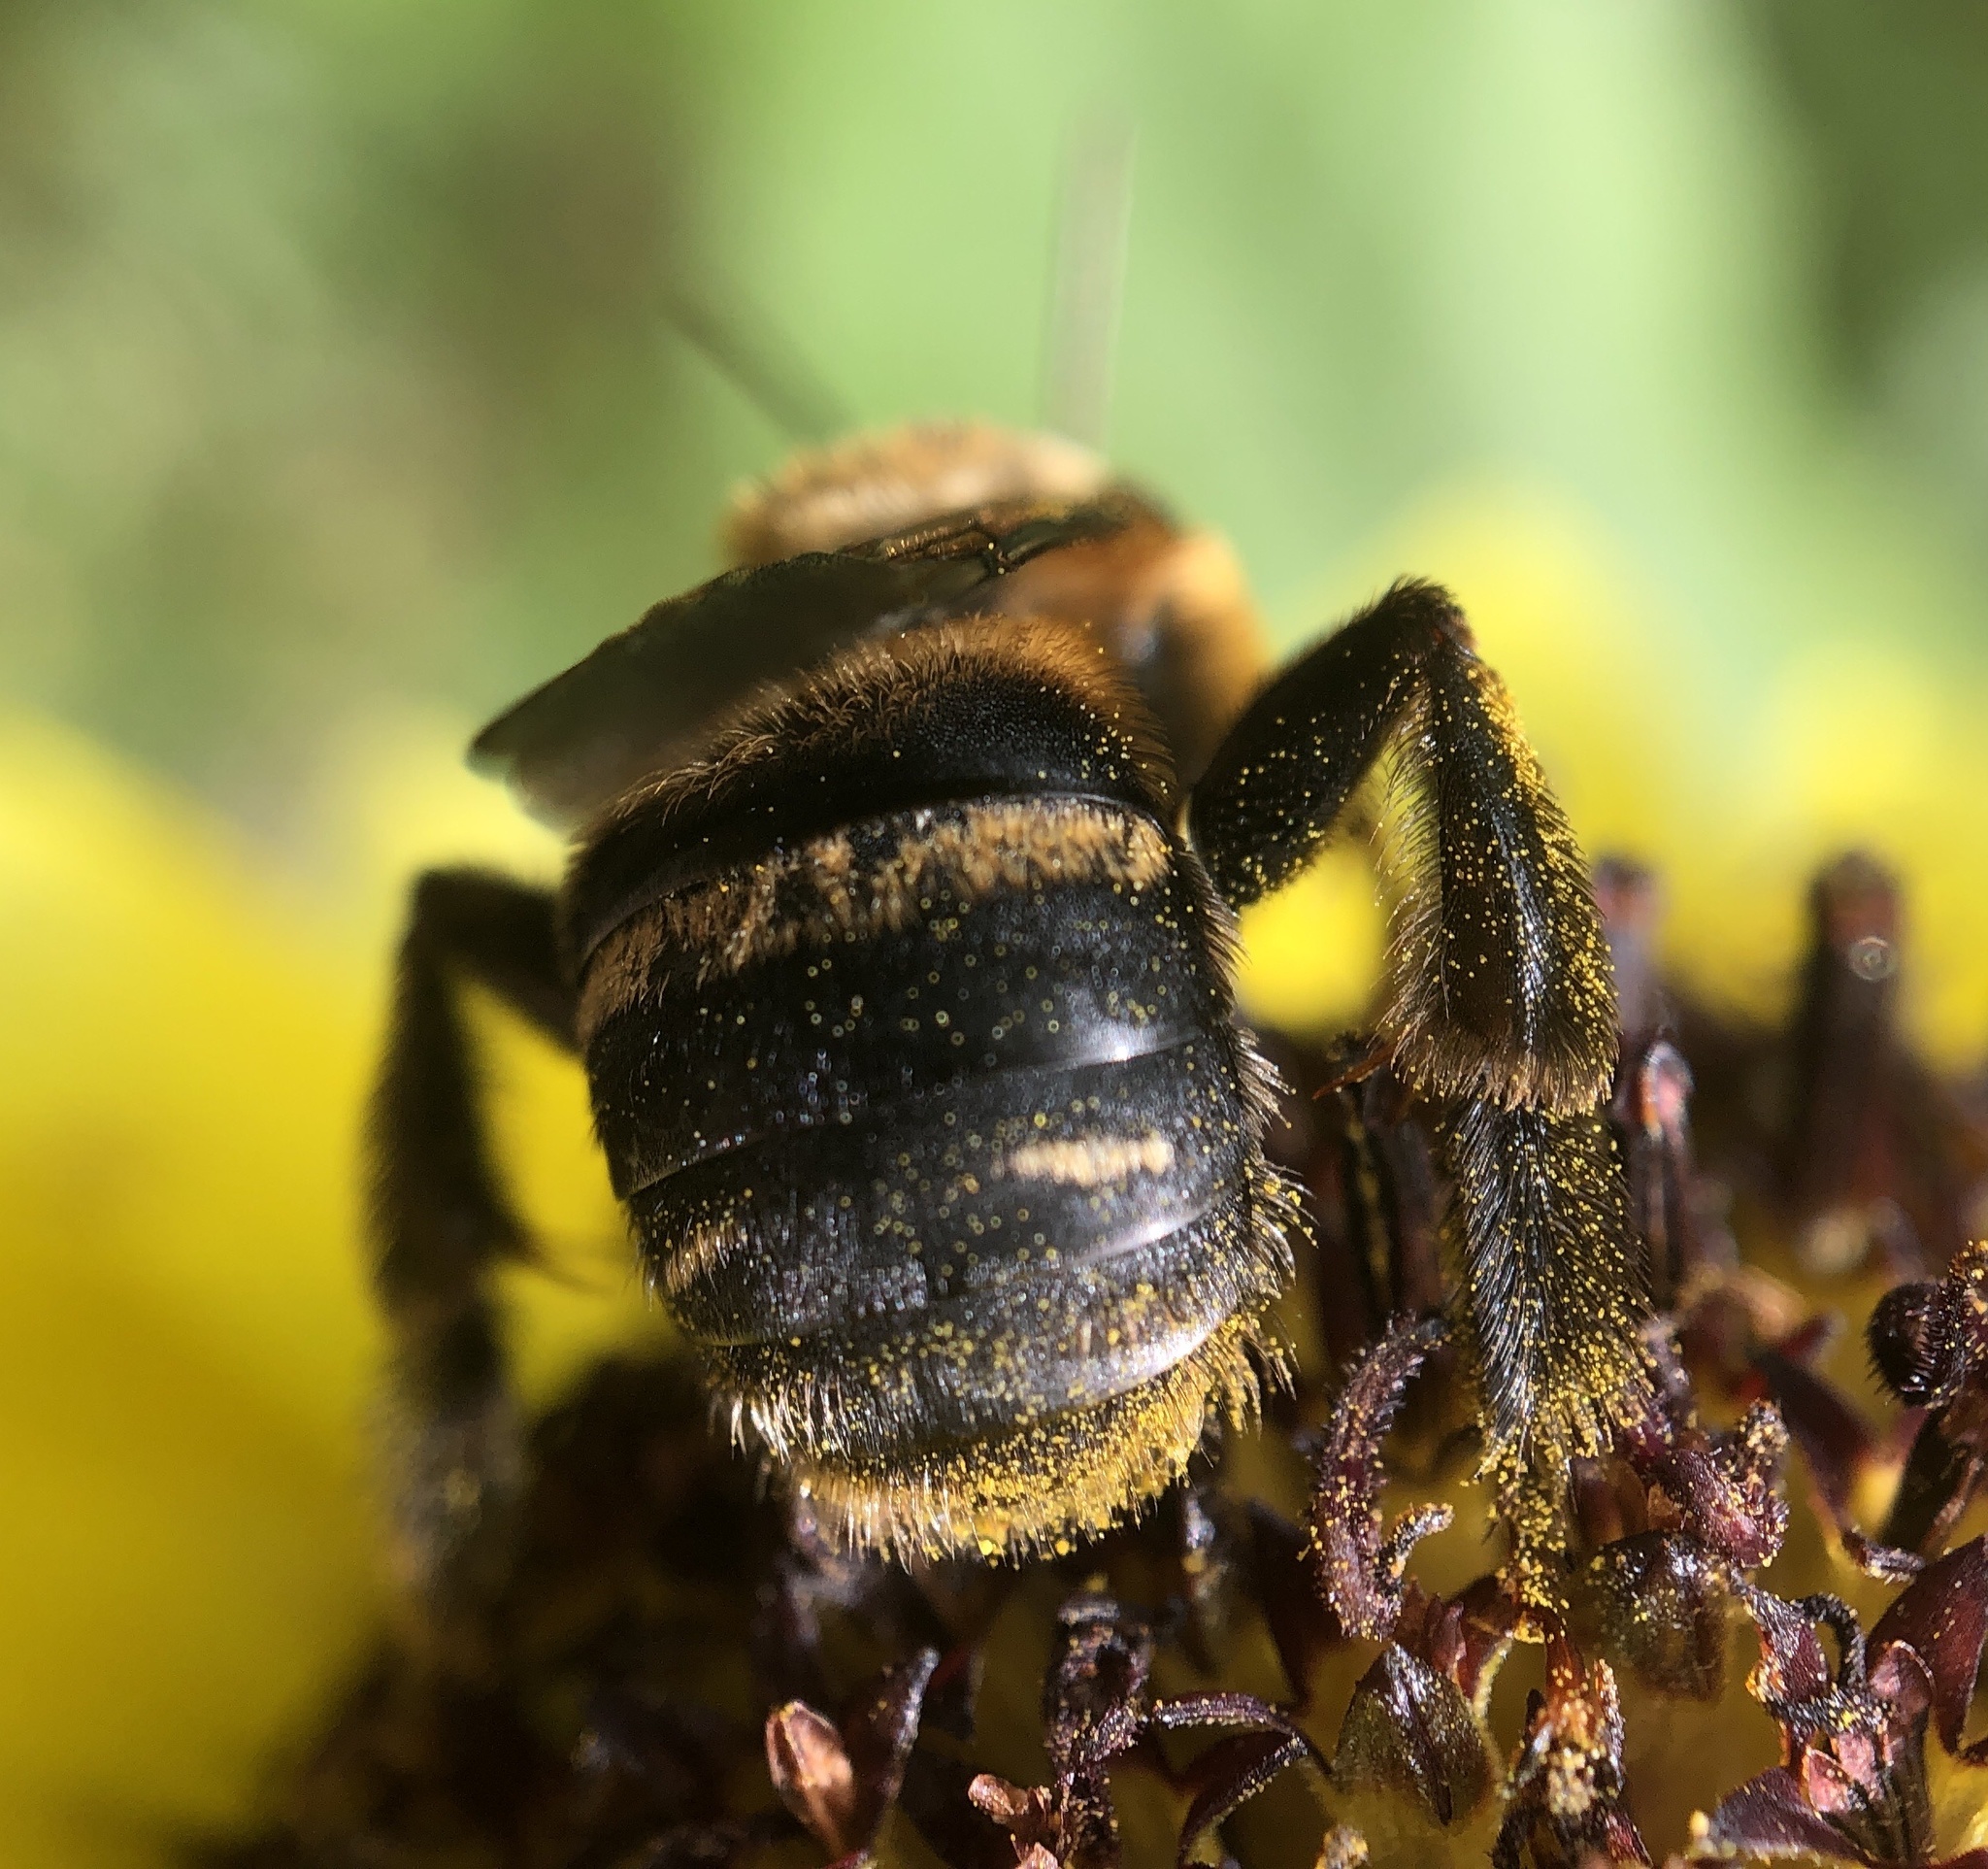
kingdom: Animalia
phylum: Arthropoda
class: Insecta
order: Hymenoptera
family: Apidae
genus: Svastra
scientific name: Svastra obliqua
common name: Oblique longhorn
